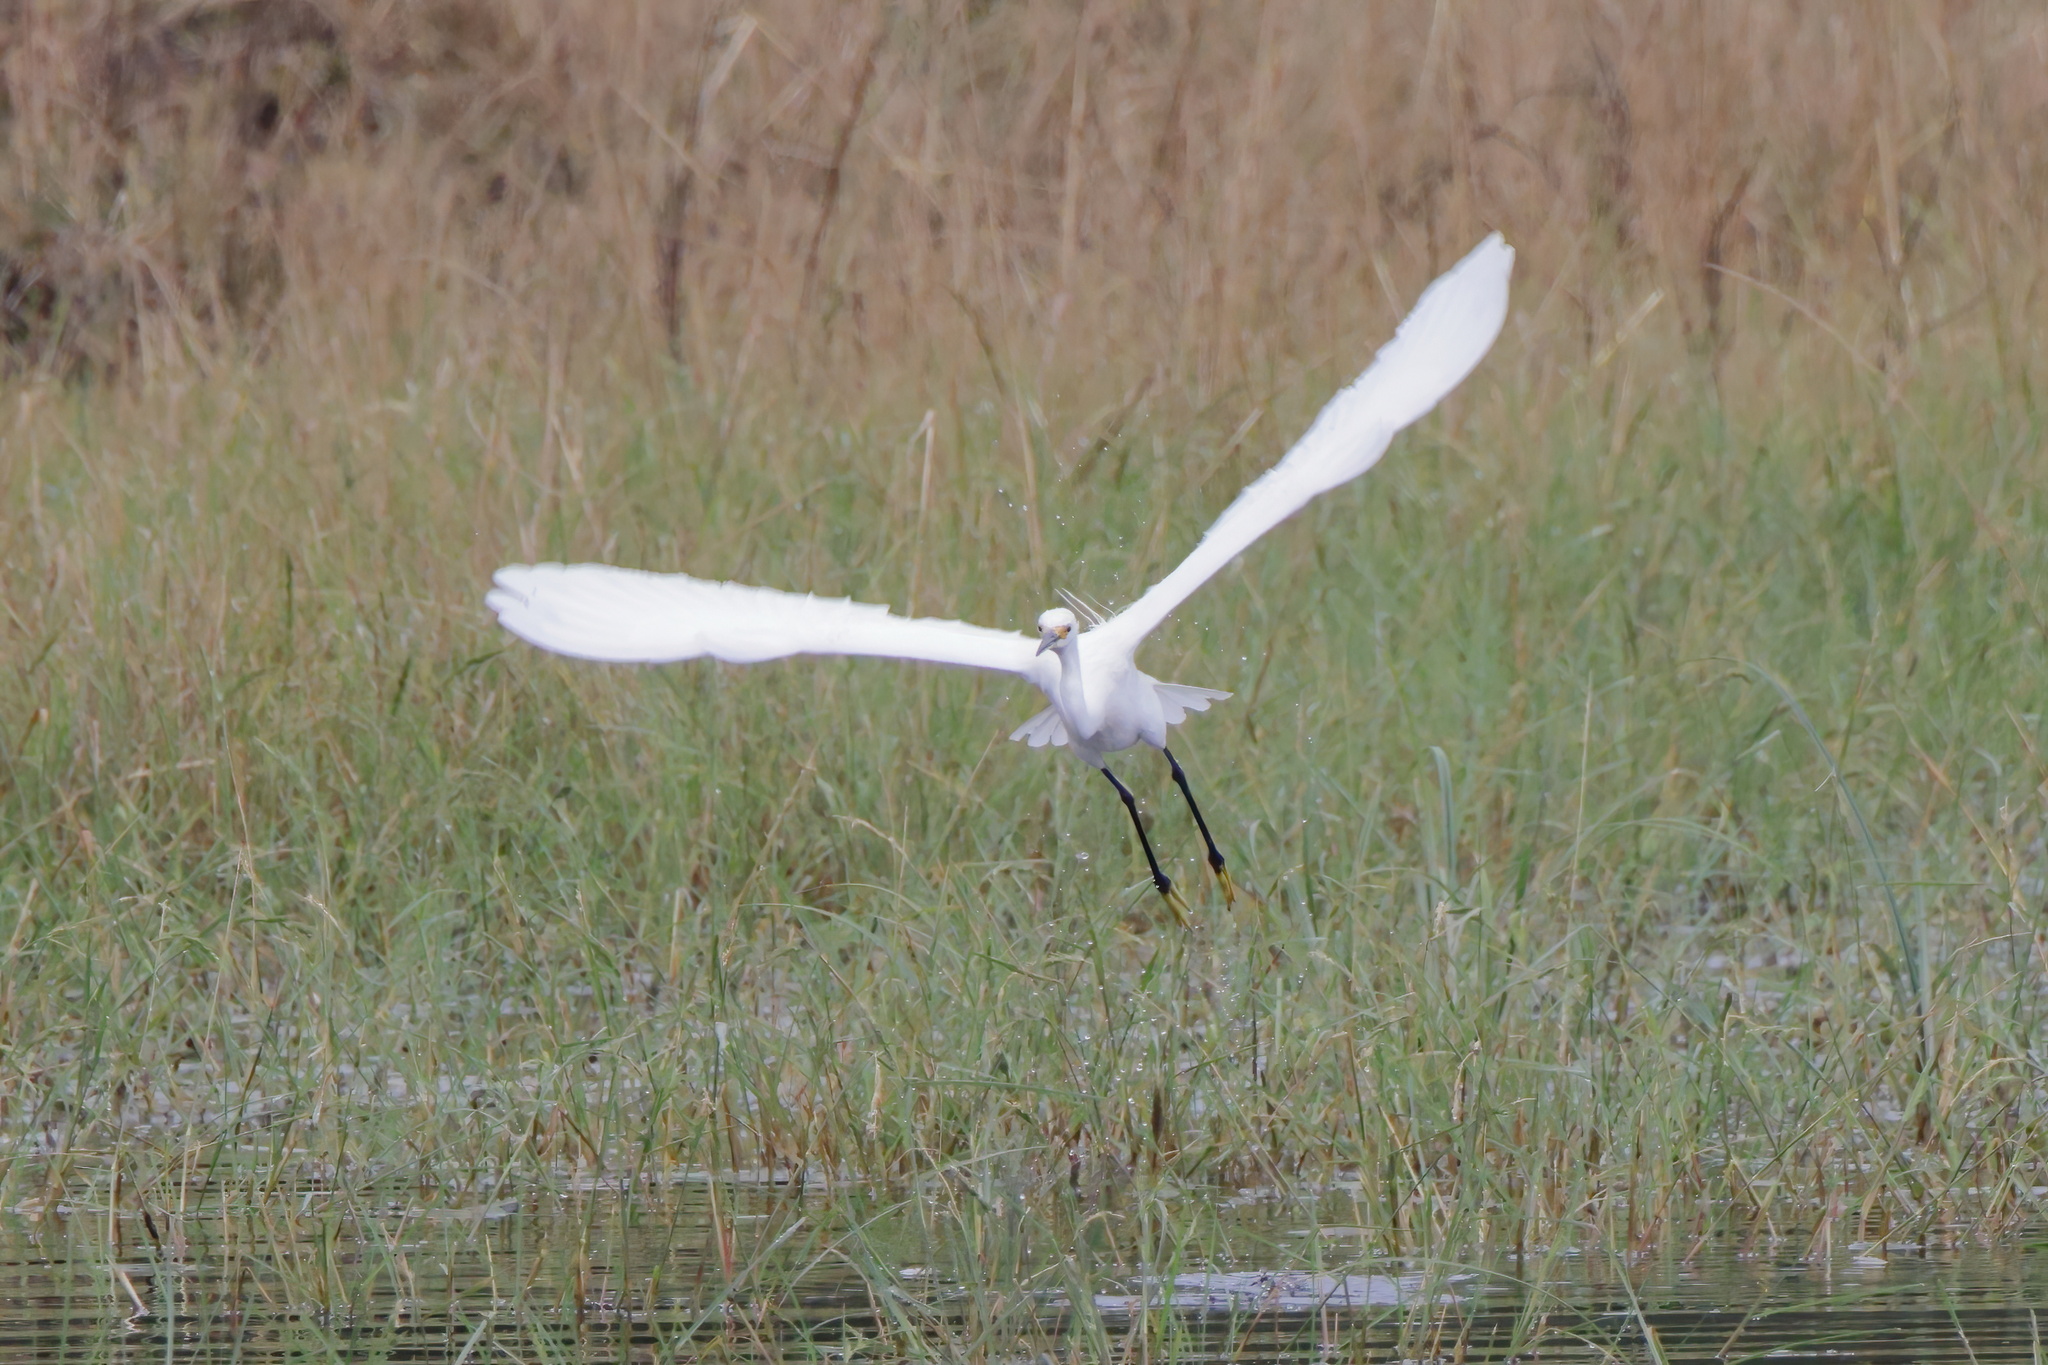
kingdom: Animalia
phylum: Chordata
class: Aves
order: Pelecaniformes
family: Ardeidae
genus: Egretta
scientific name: Egretta thula
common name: Snowy egret
